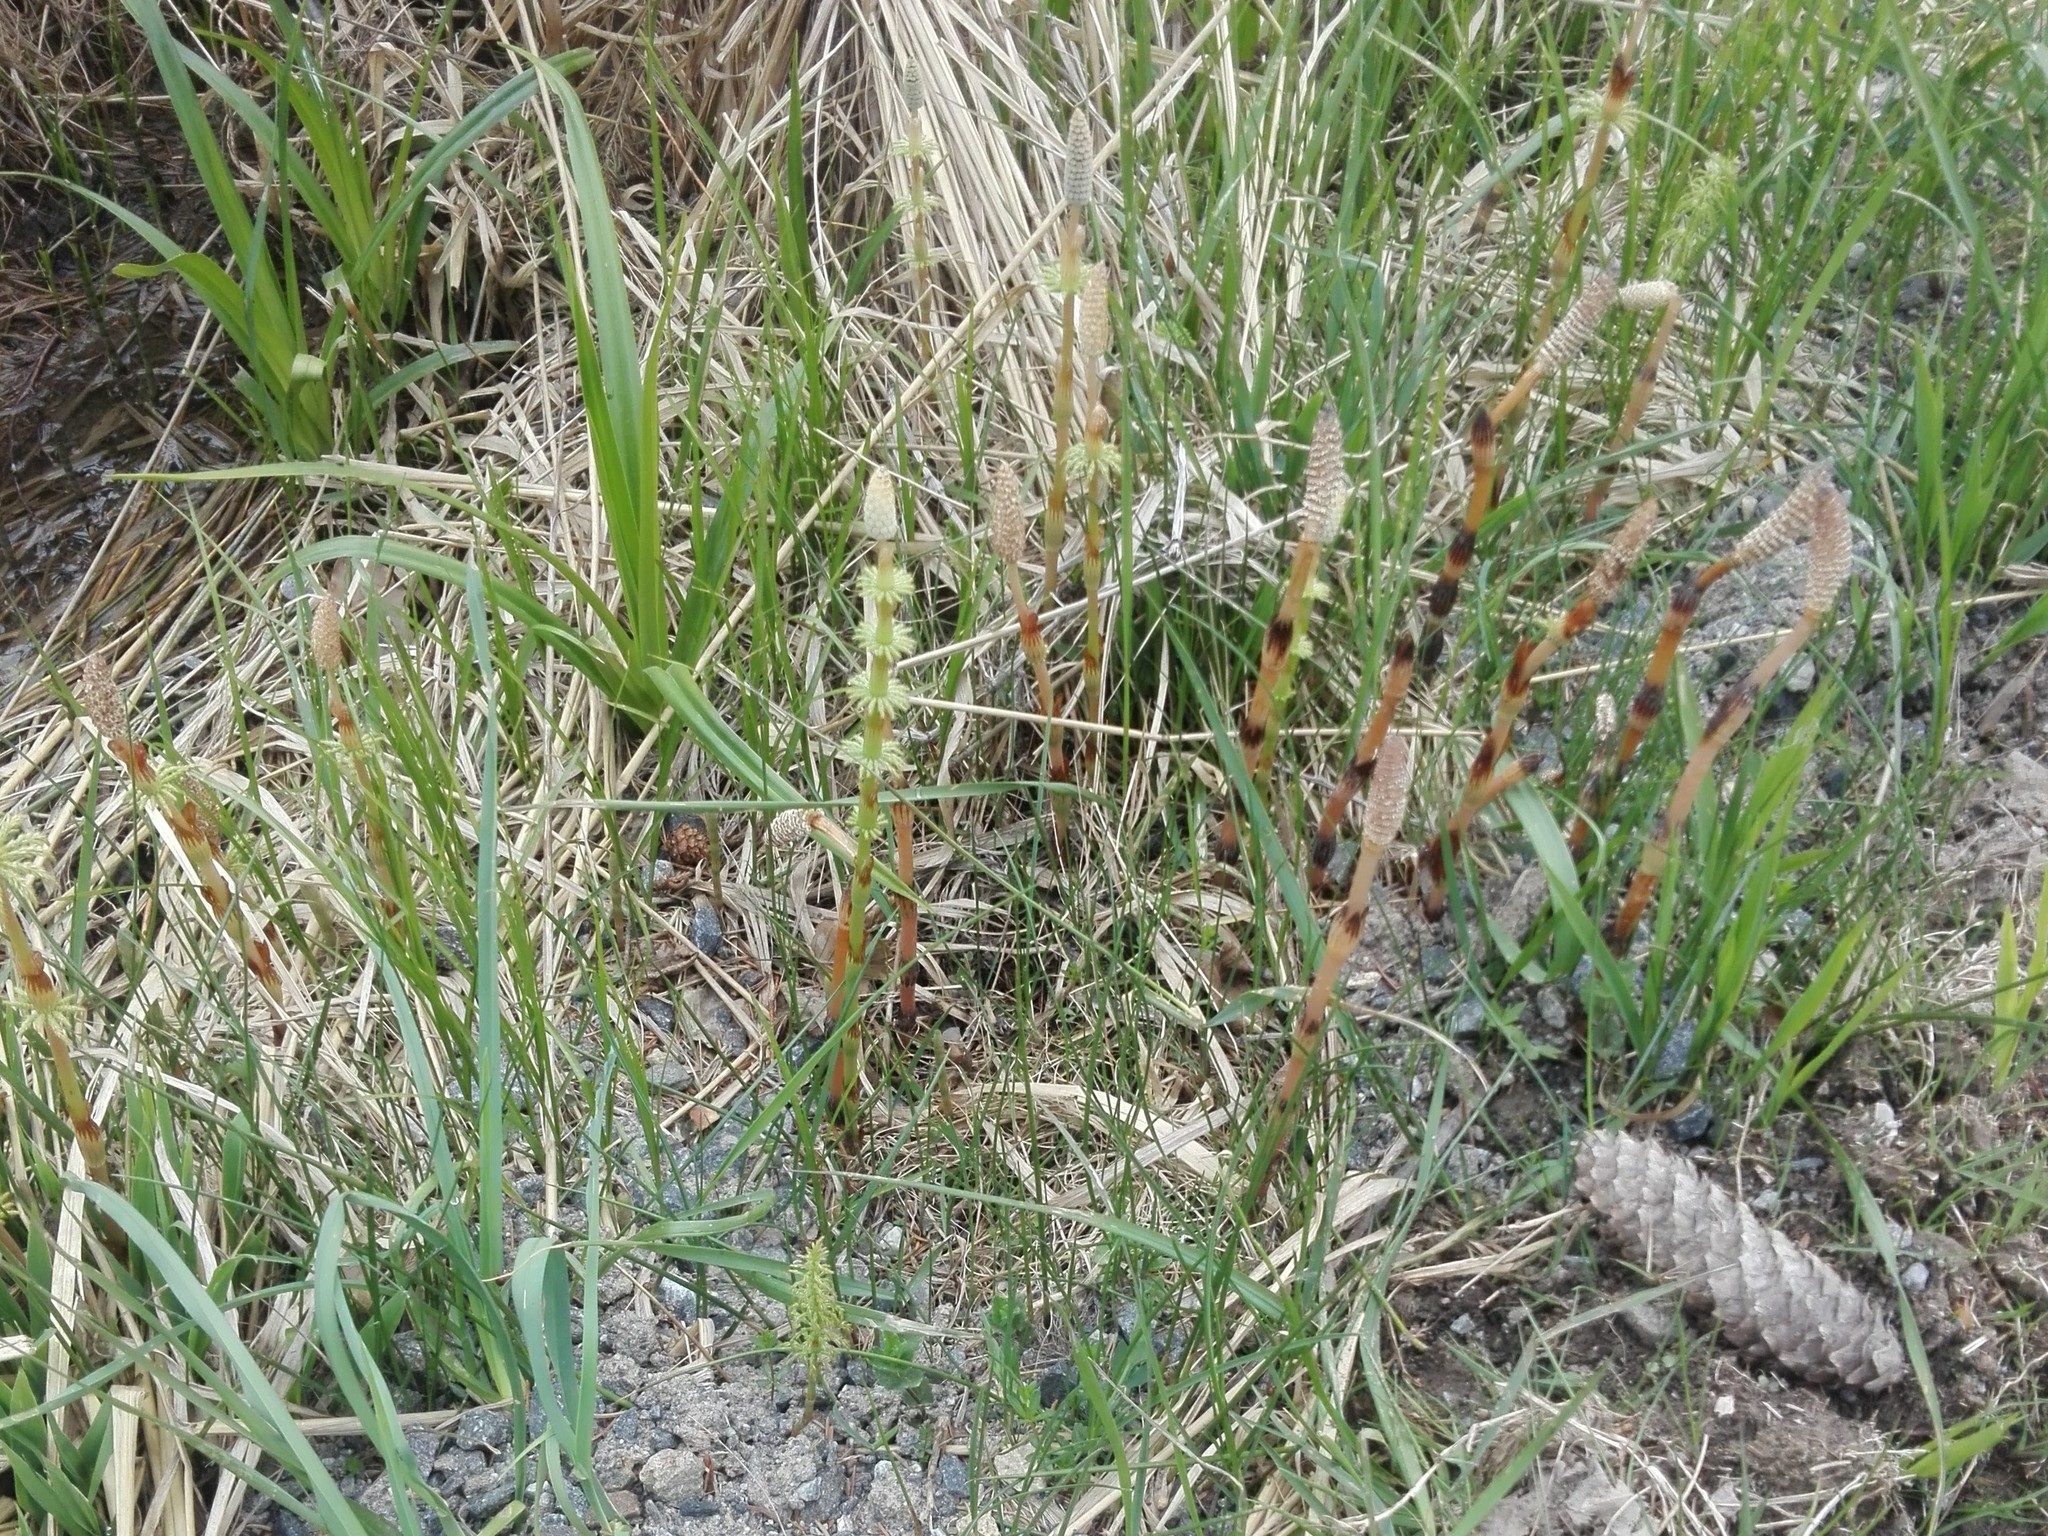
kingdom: Plantae
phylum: Tracheophyta
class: Polypodiopsida
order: Equisetales
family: Equisetaceae
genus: Equisetum
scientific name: Equisetum sylvaticum
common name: Wood horsetail
